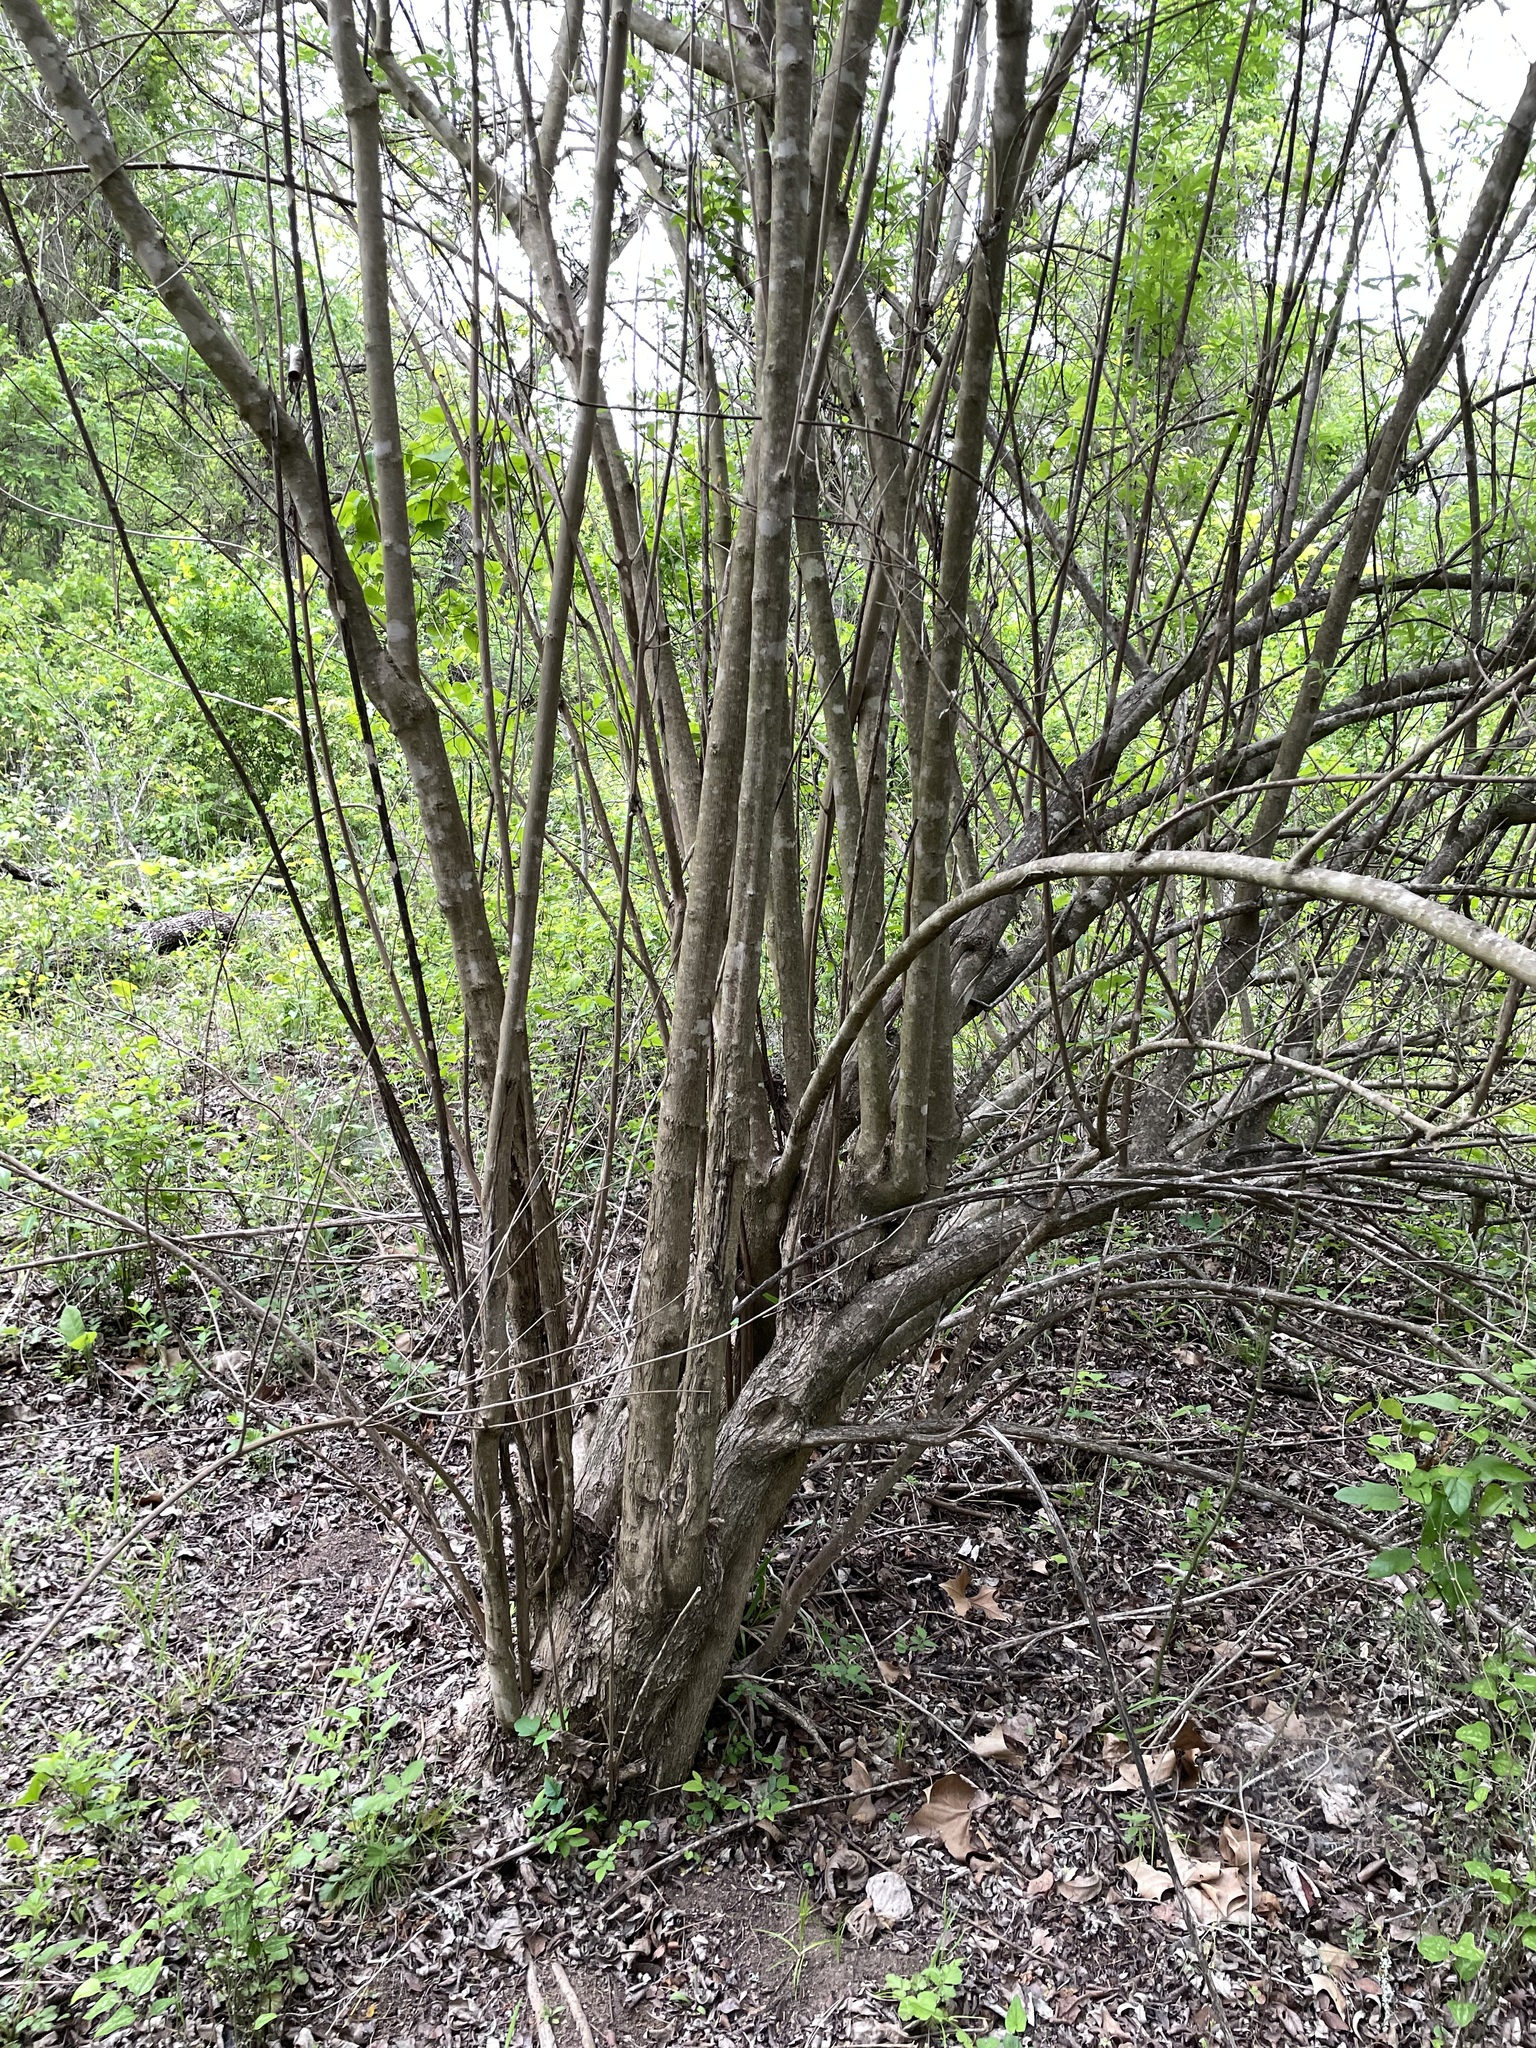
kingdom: Plantae
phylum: Tracheophyta
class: Magnoliopsida
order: Lamiales
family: Lamiaceae
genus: Vitex
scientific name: Vitex agnus-castus
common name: Chasteberry
